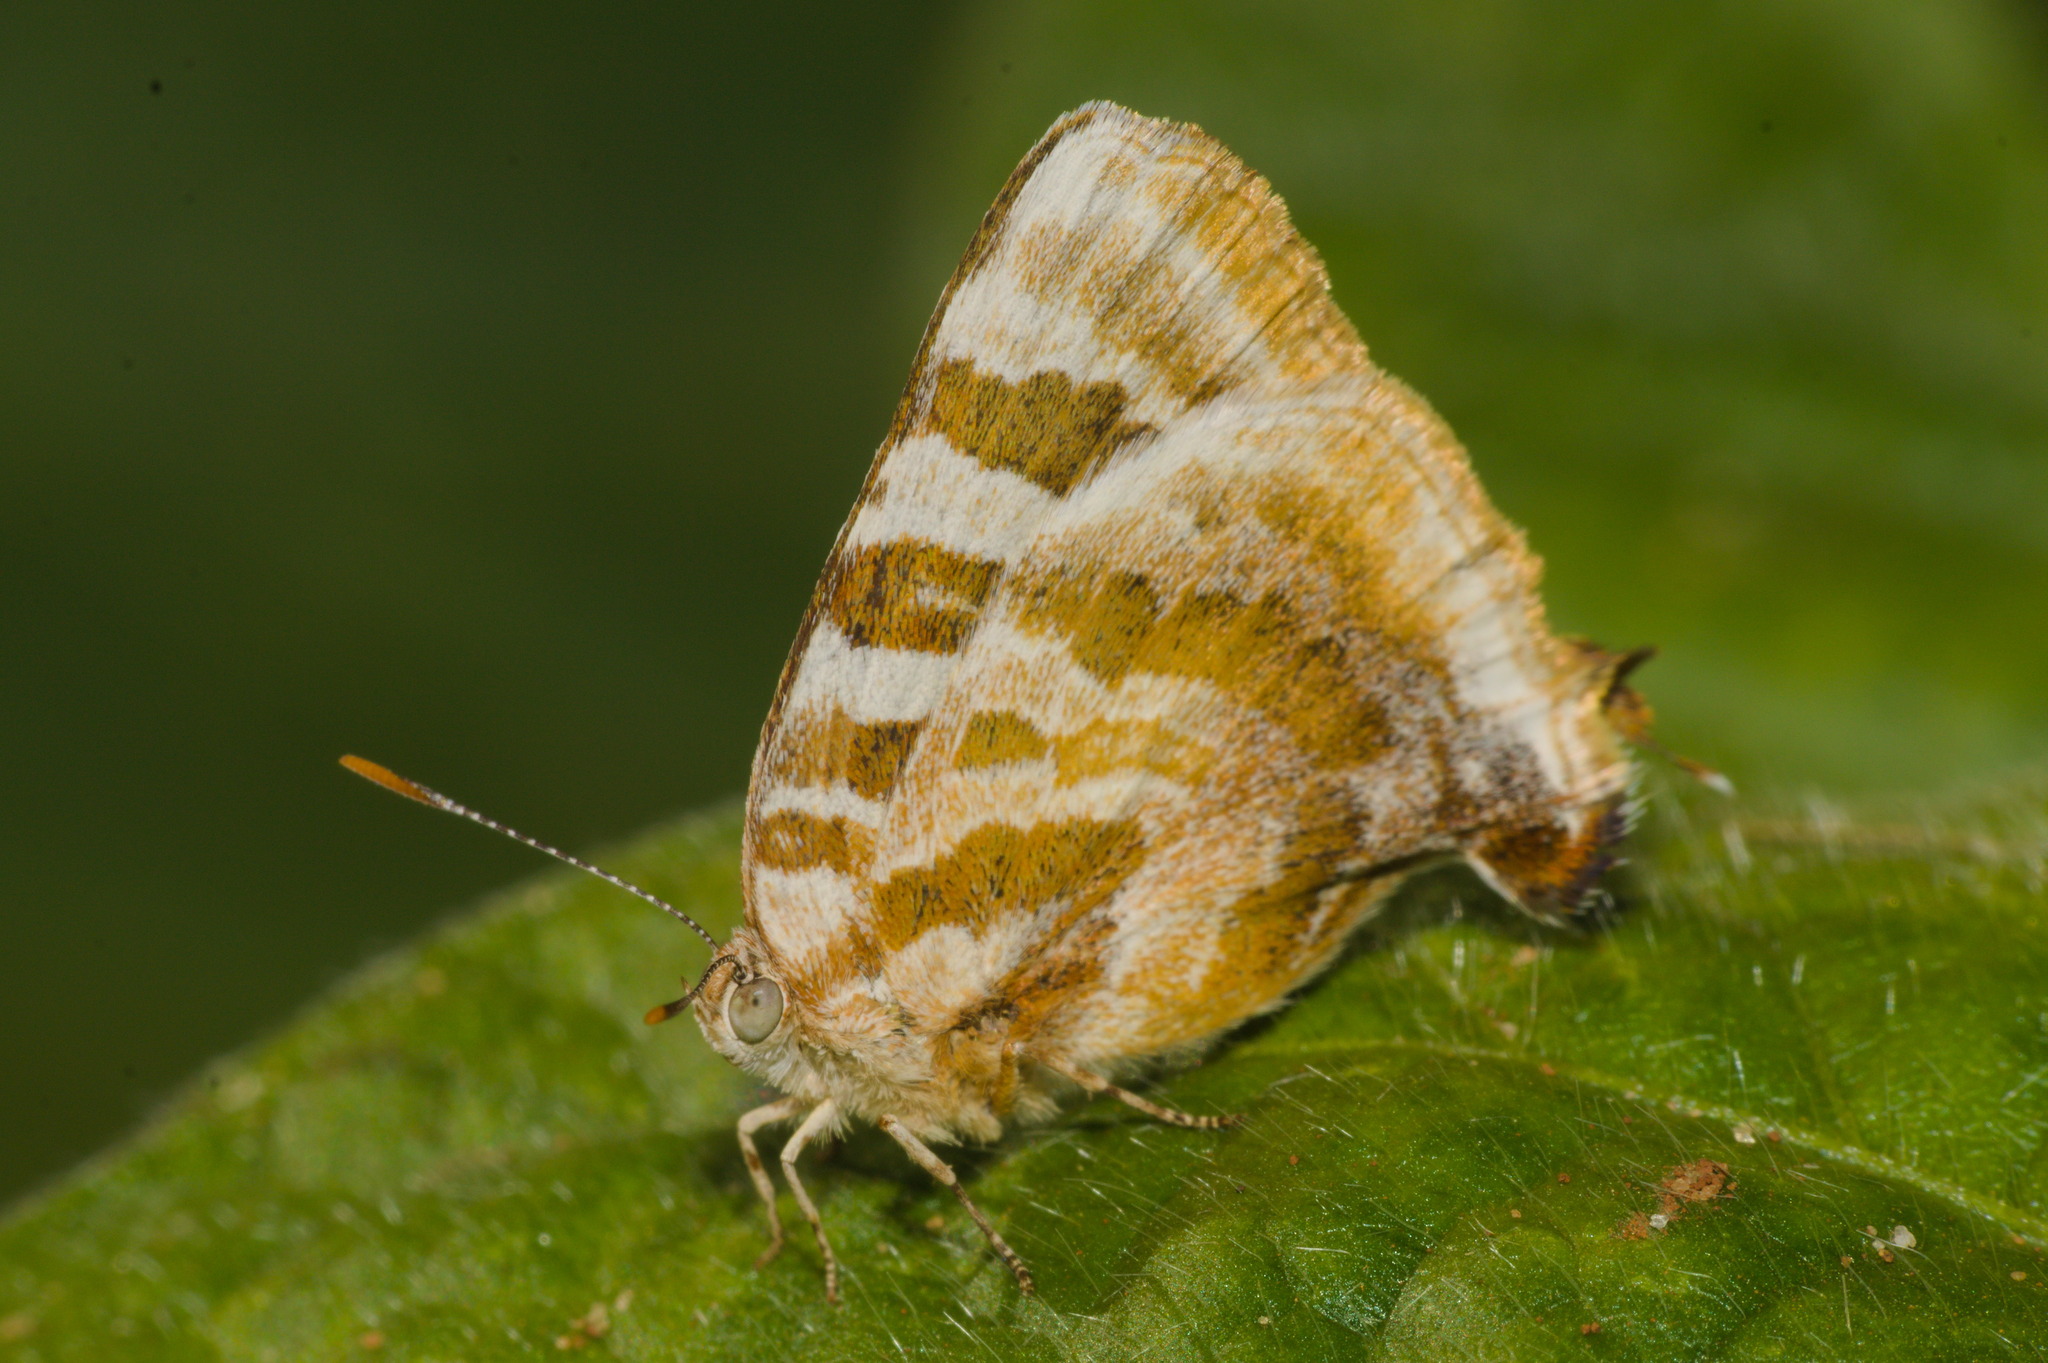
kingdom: Animalia
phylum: Arthropoda
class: Insecta
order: Lepidoptera
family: Lycaenidae
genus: Arawacus
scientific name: Arawacus ellida
